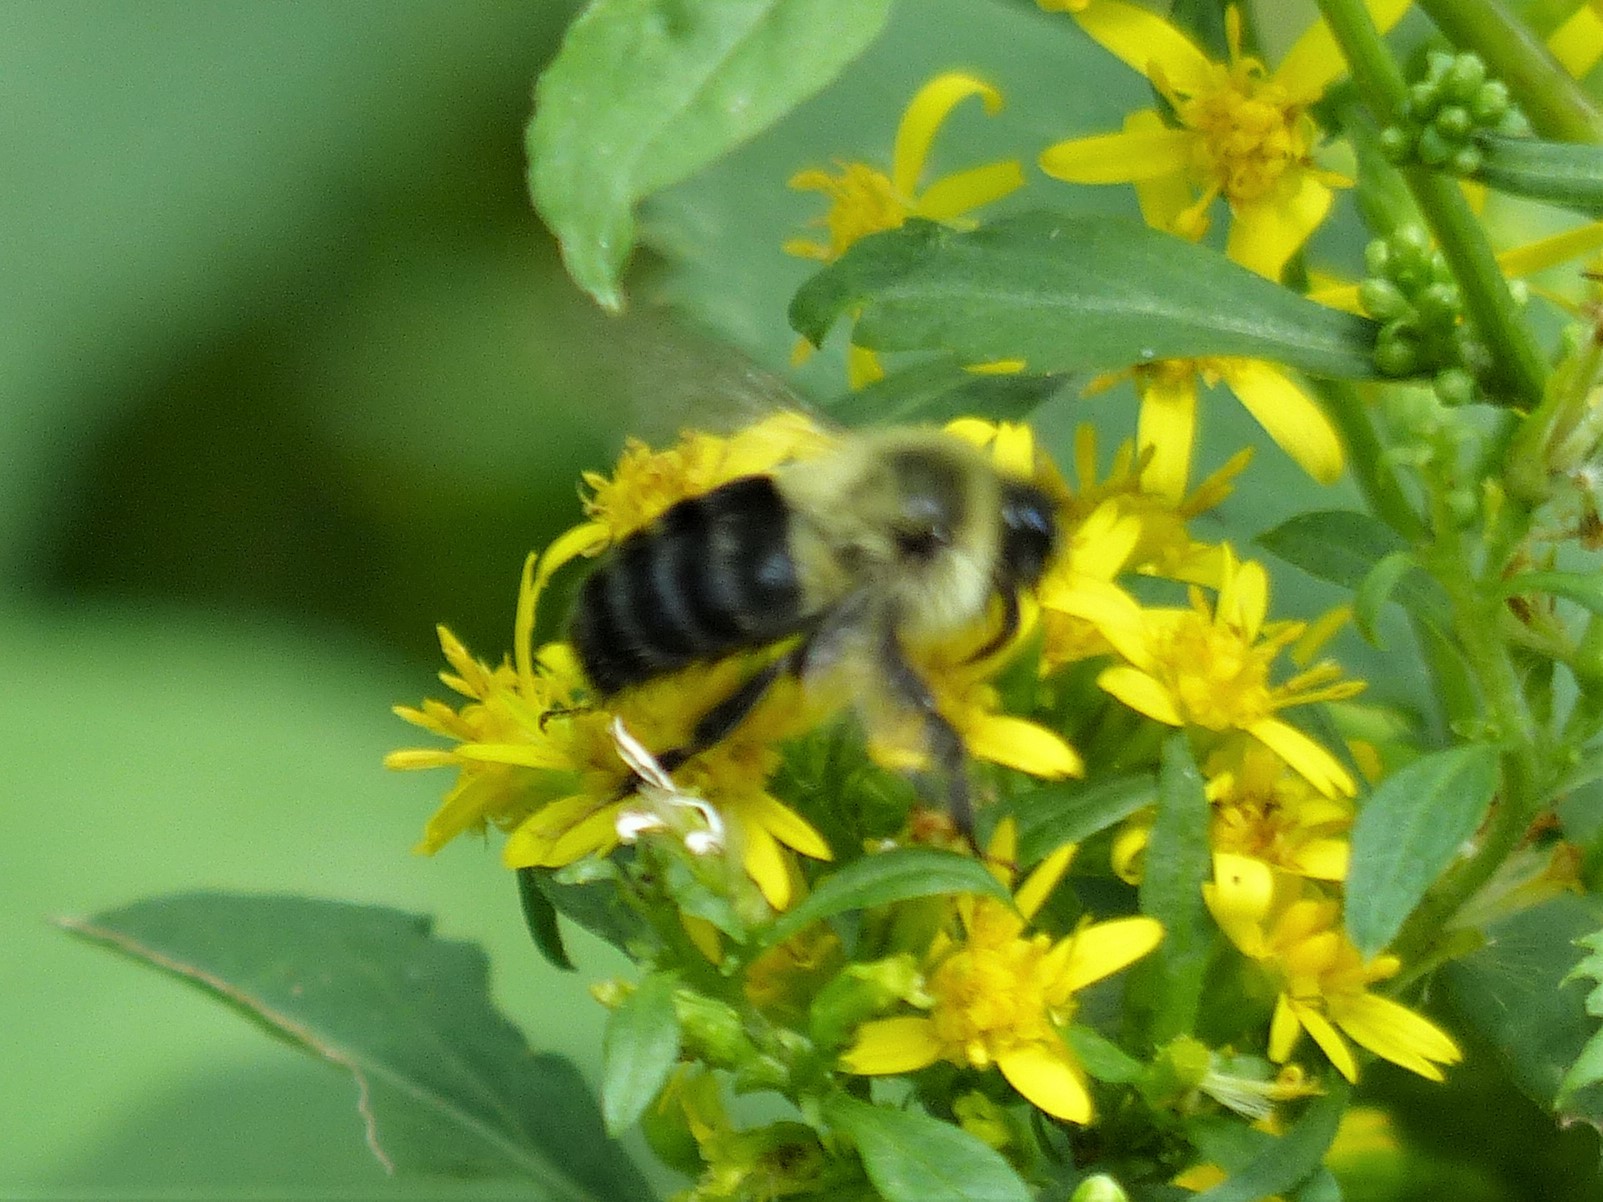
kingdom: Animalia
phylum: Arthropoda
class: Insecta
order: Hymenoptera
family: Apidae
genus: Bombus
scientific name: Bombus impatiens
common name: Common eastern bumble bee
